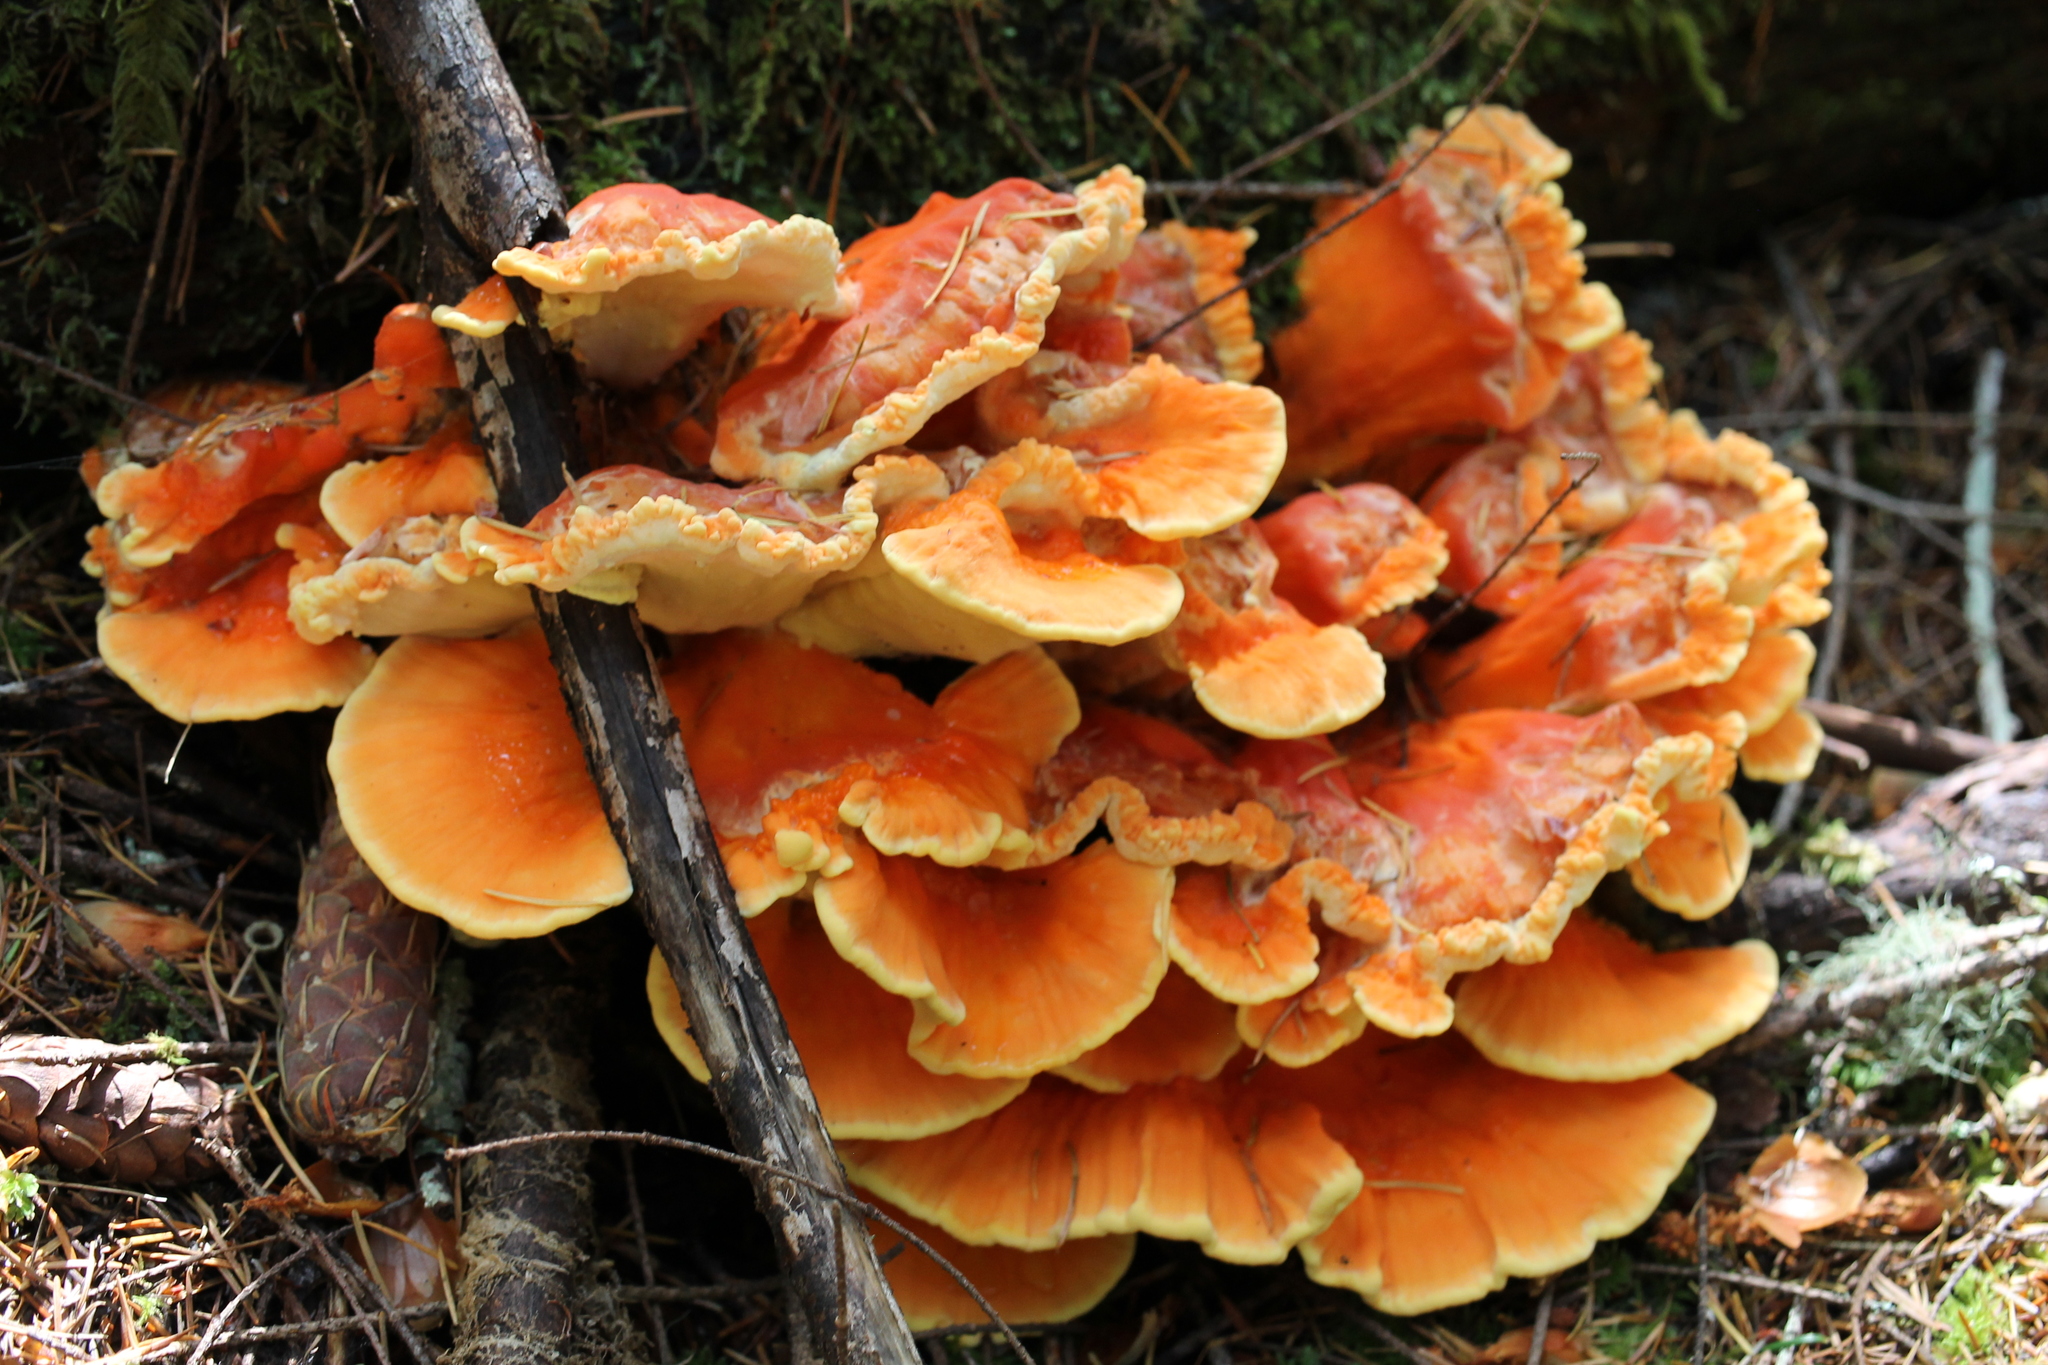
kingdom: Fungi
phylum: Basidiomycota
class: Agaricomycetes
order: Polyporales
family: Laetiporaceae
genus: Laetiporus
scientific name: Laetiporus conifericola
